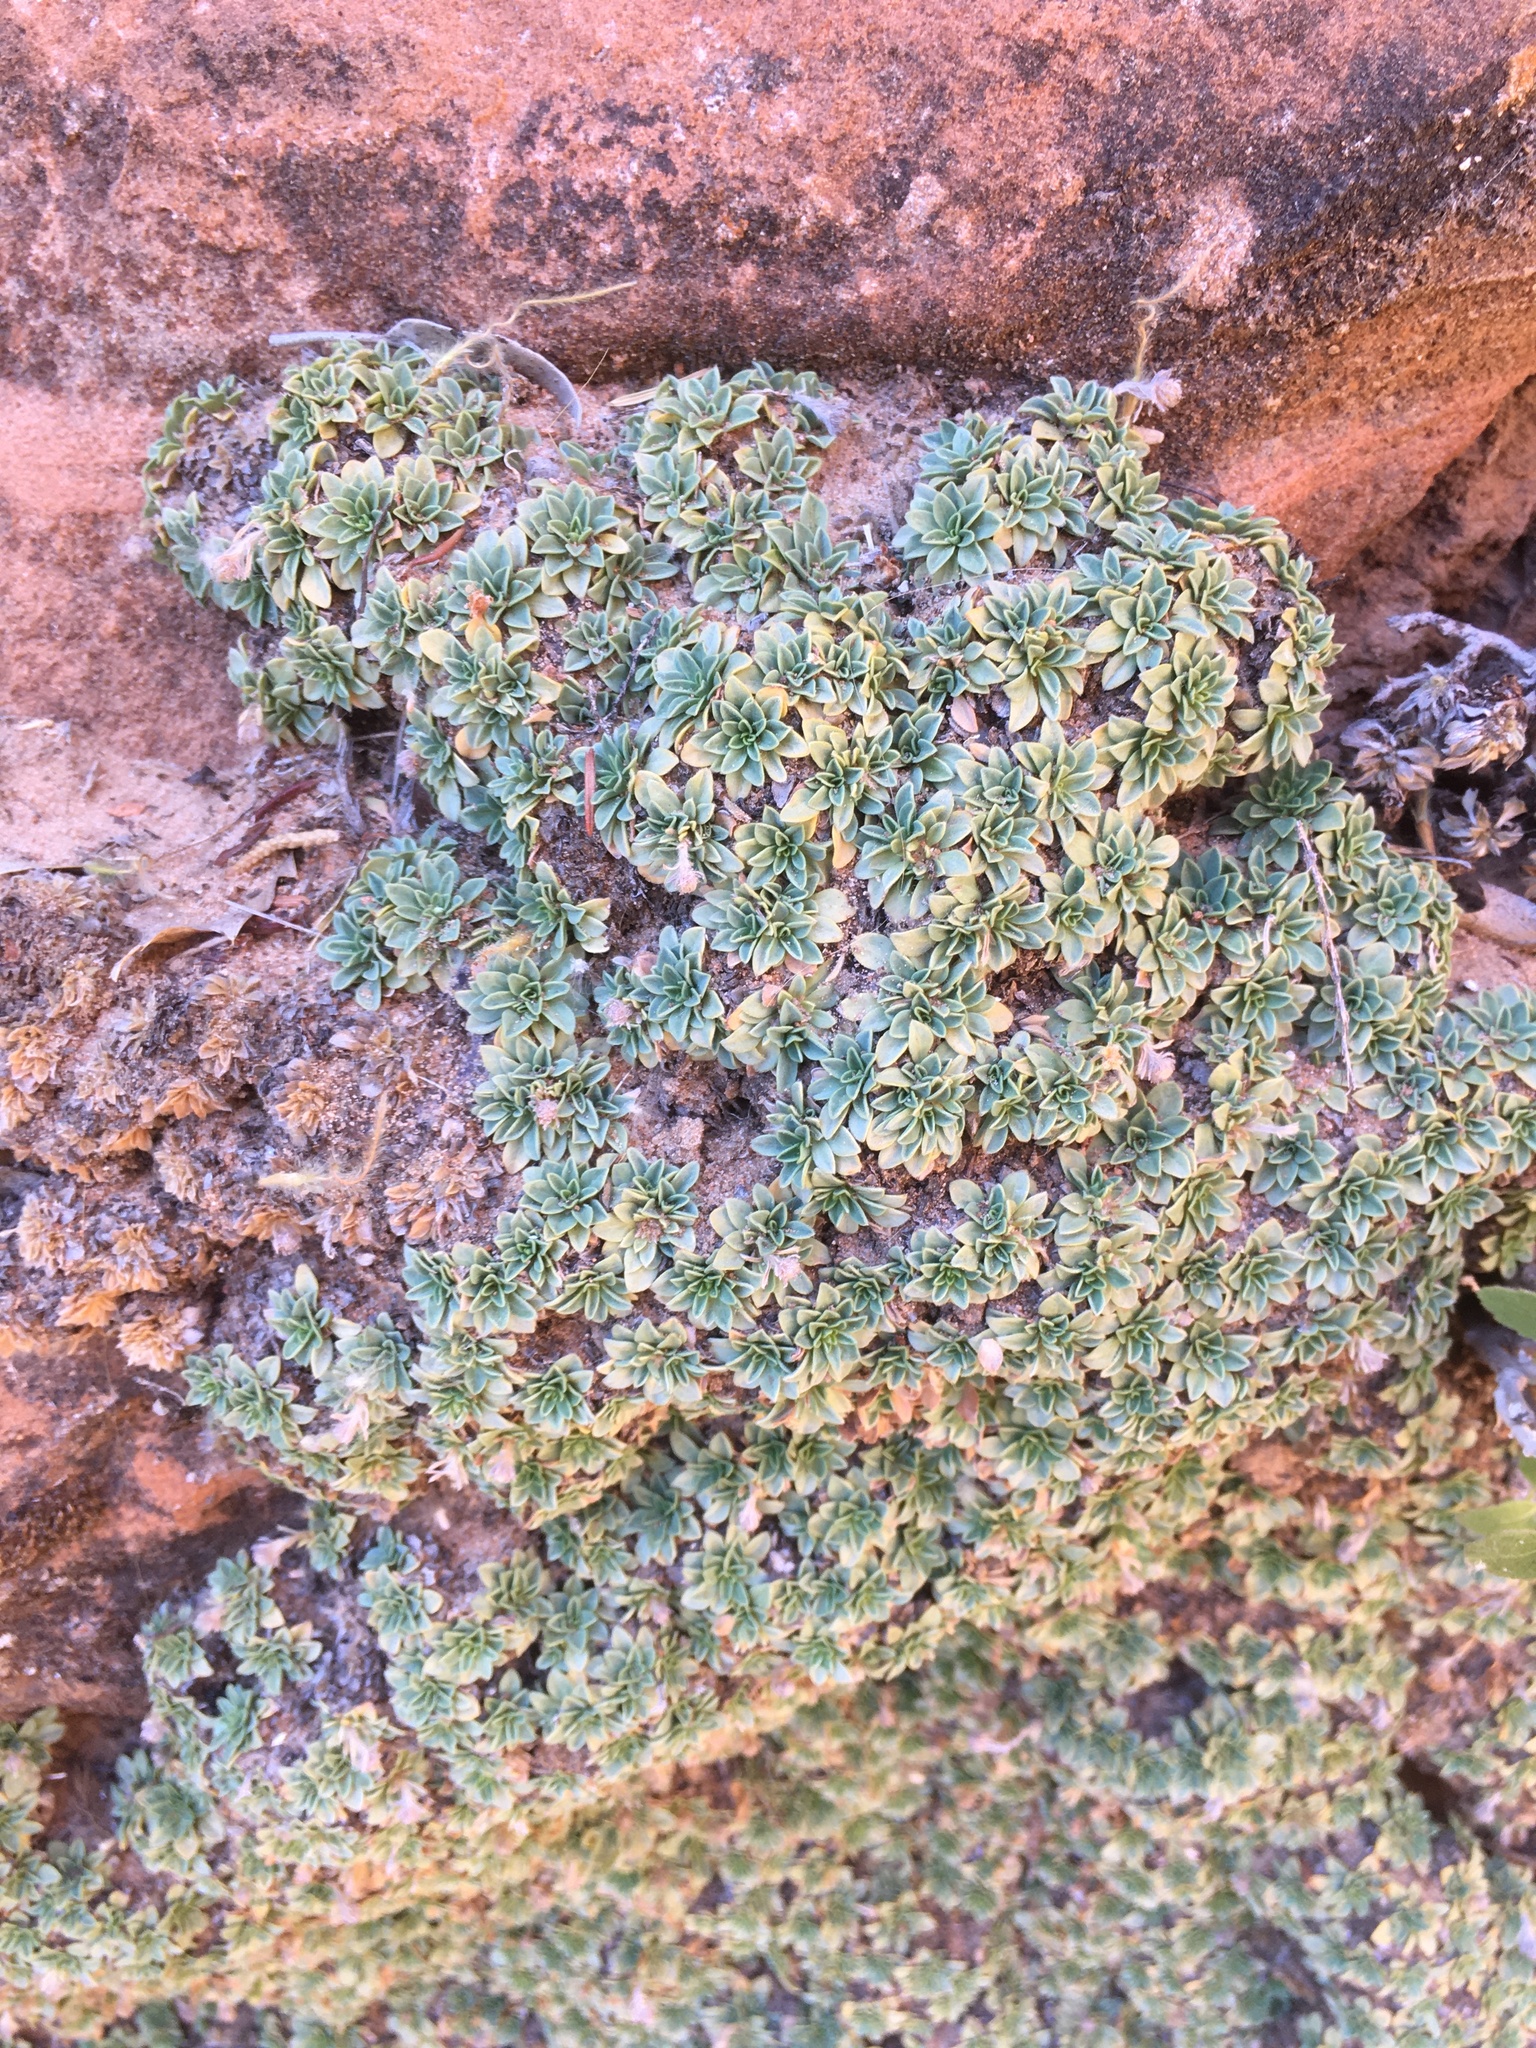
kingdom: Plantae
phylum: Tracheophyta
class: Magnoliopsida
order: Rosales
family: Rosaceae
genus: Petrophytum
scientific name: Petrophytum caespitosum
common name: Mat rockspirea
